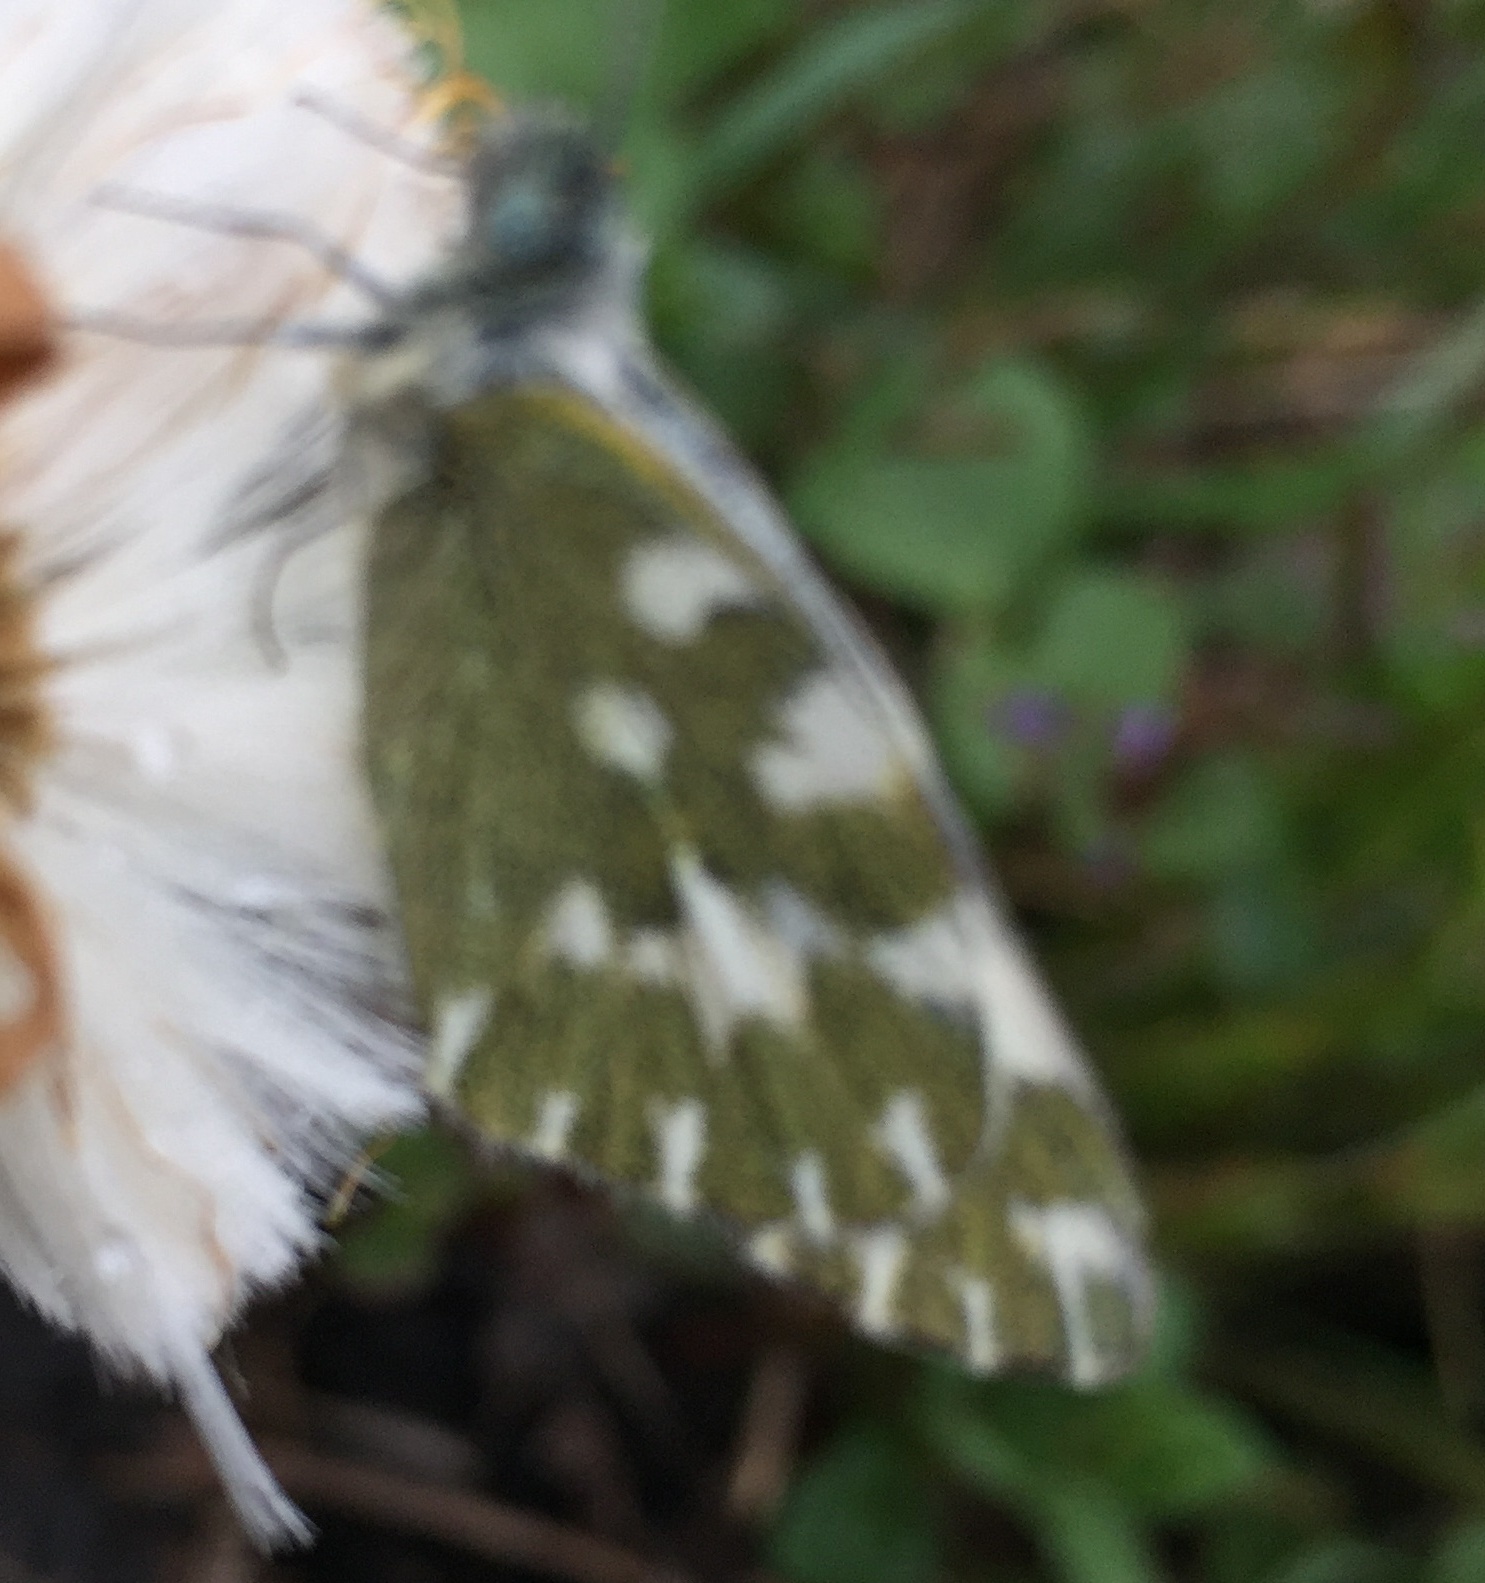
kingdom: Animalia
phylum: Arthropoda
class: Insecta
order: Lepidoptera
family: Pieridae
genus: Pontia
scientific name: Pontia edusa
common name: Eastern bath white
